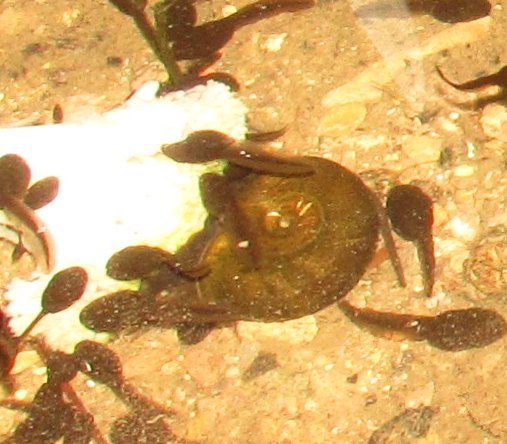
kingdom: Animalia
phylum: Mollusca
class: Gastropoda
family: Planorbidae
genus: Planorbarius
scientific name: Planorbarius corneus
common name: Great ramshorn
